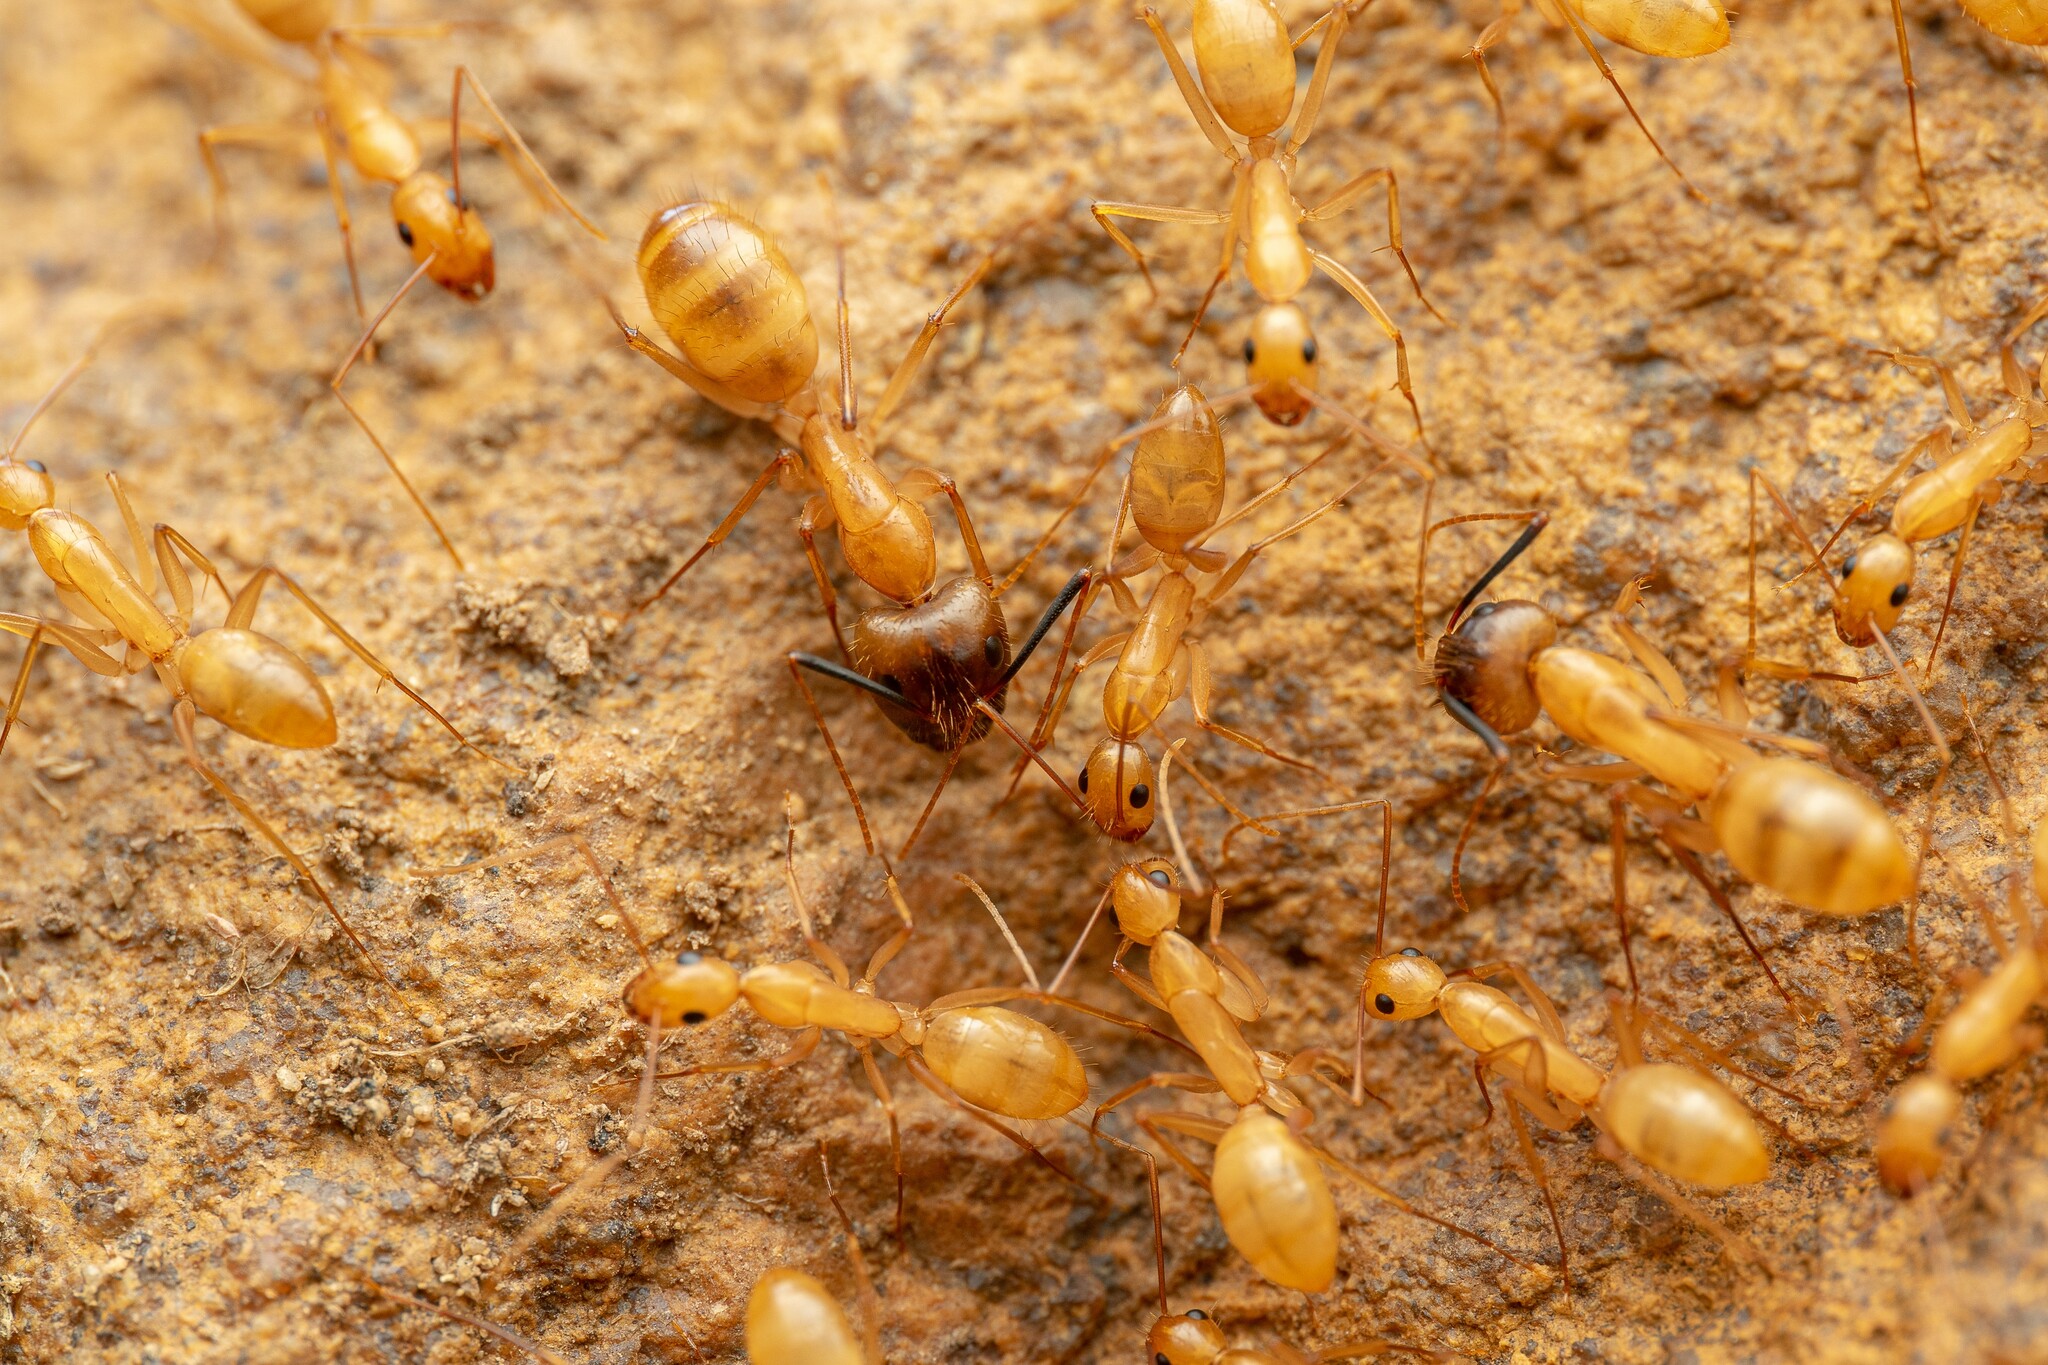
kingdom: Animalia
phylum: Arthropoda
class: Insecta
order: Hymenoptera
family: Formicidae
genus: Camponotus
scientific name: Camponotus festinatus
